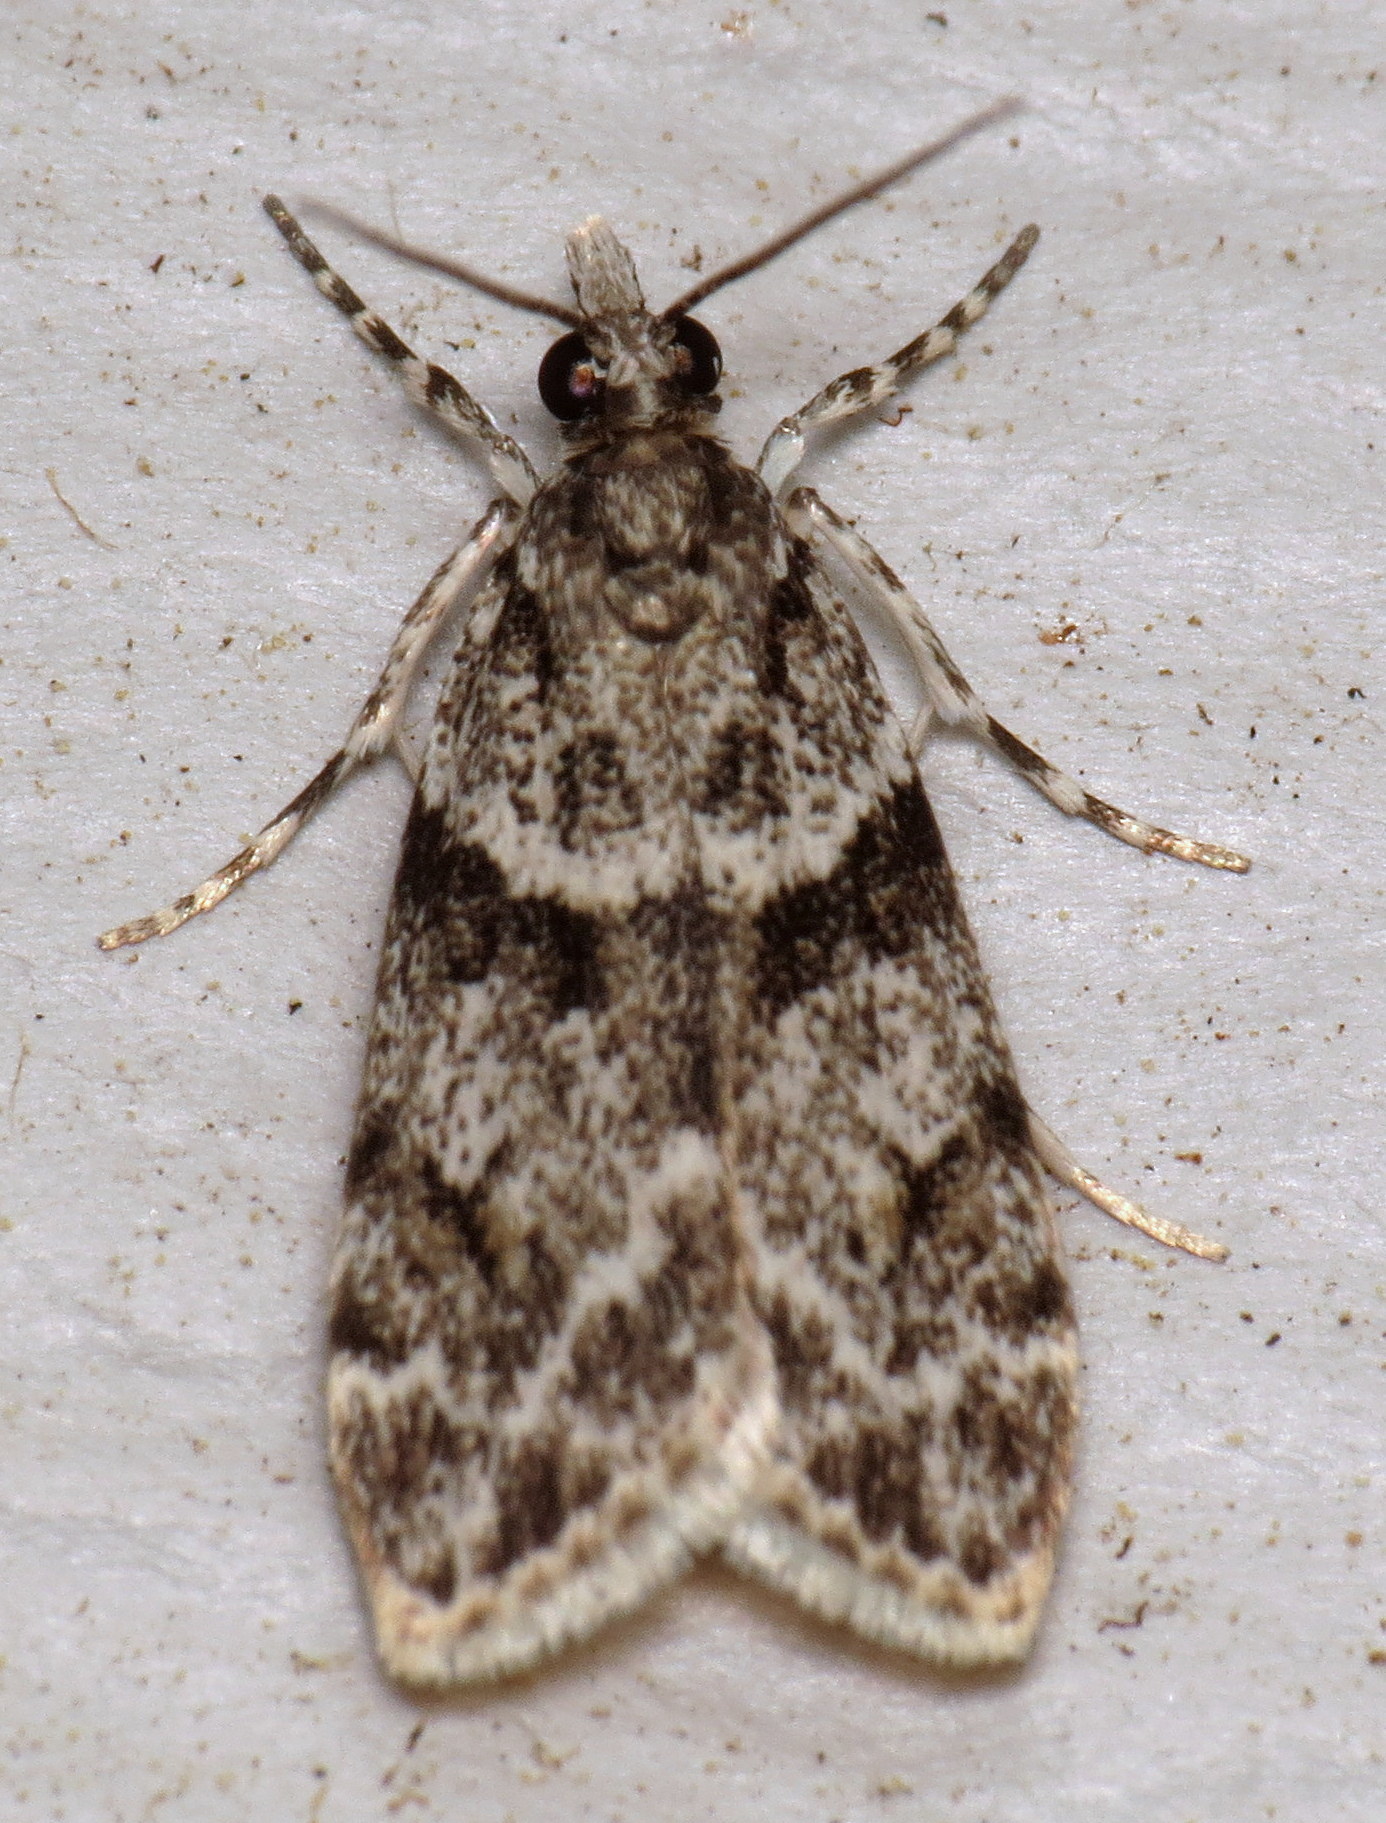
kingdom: Animalia
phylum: Arthropoda
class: Insecta
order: Lepidoptera
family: Crambidae
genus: Scoparia
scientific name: Scoparia biplagialis
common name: Double-striped scoparia moth
